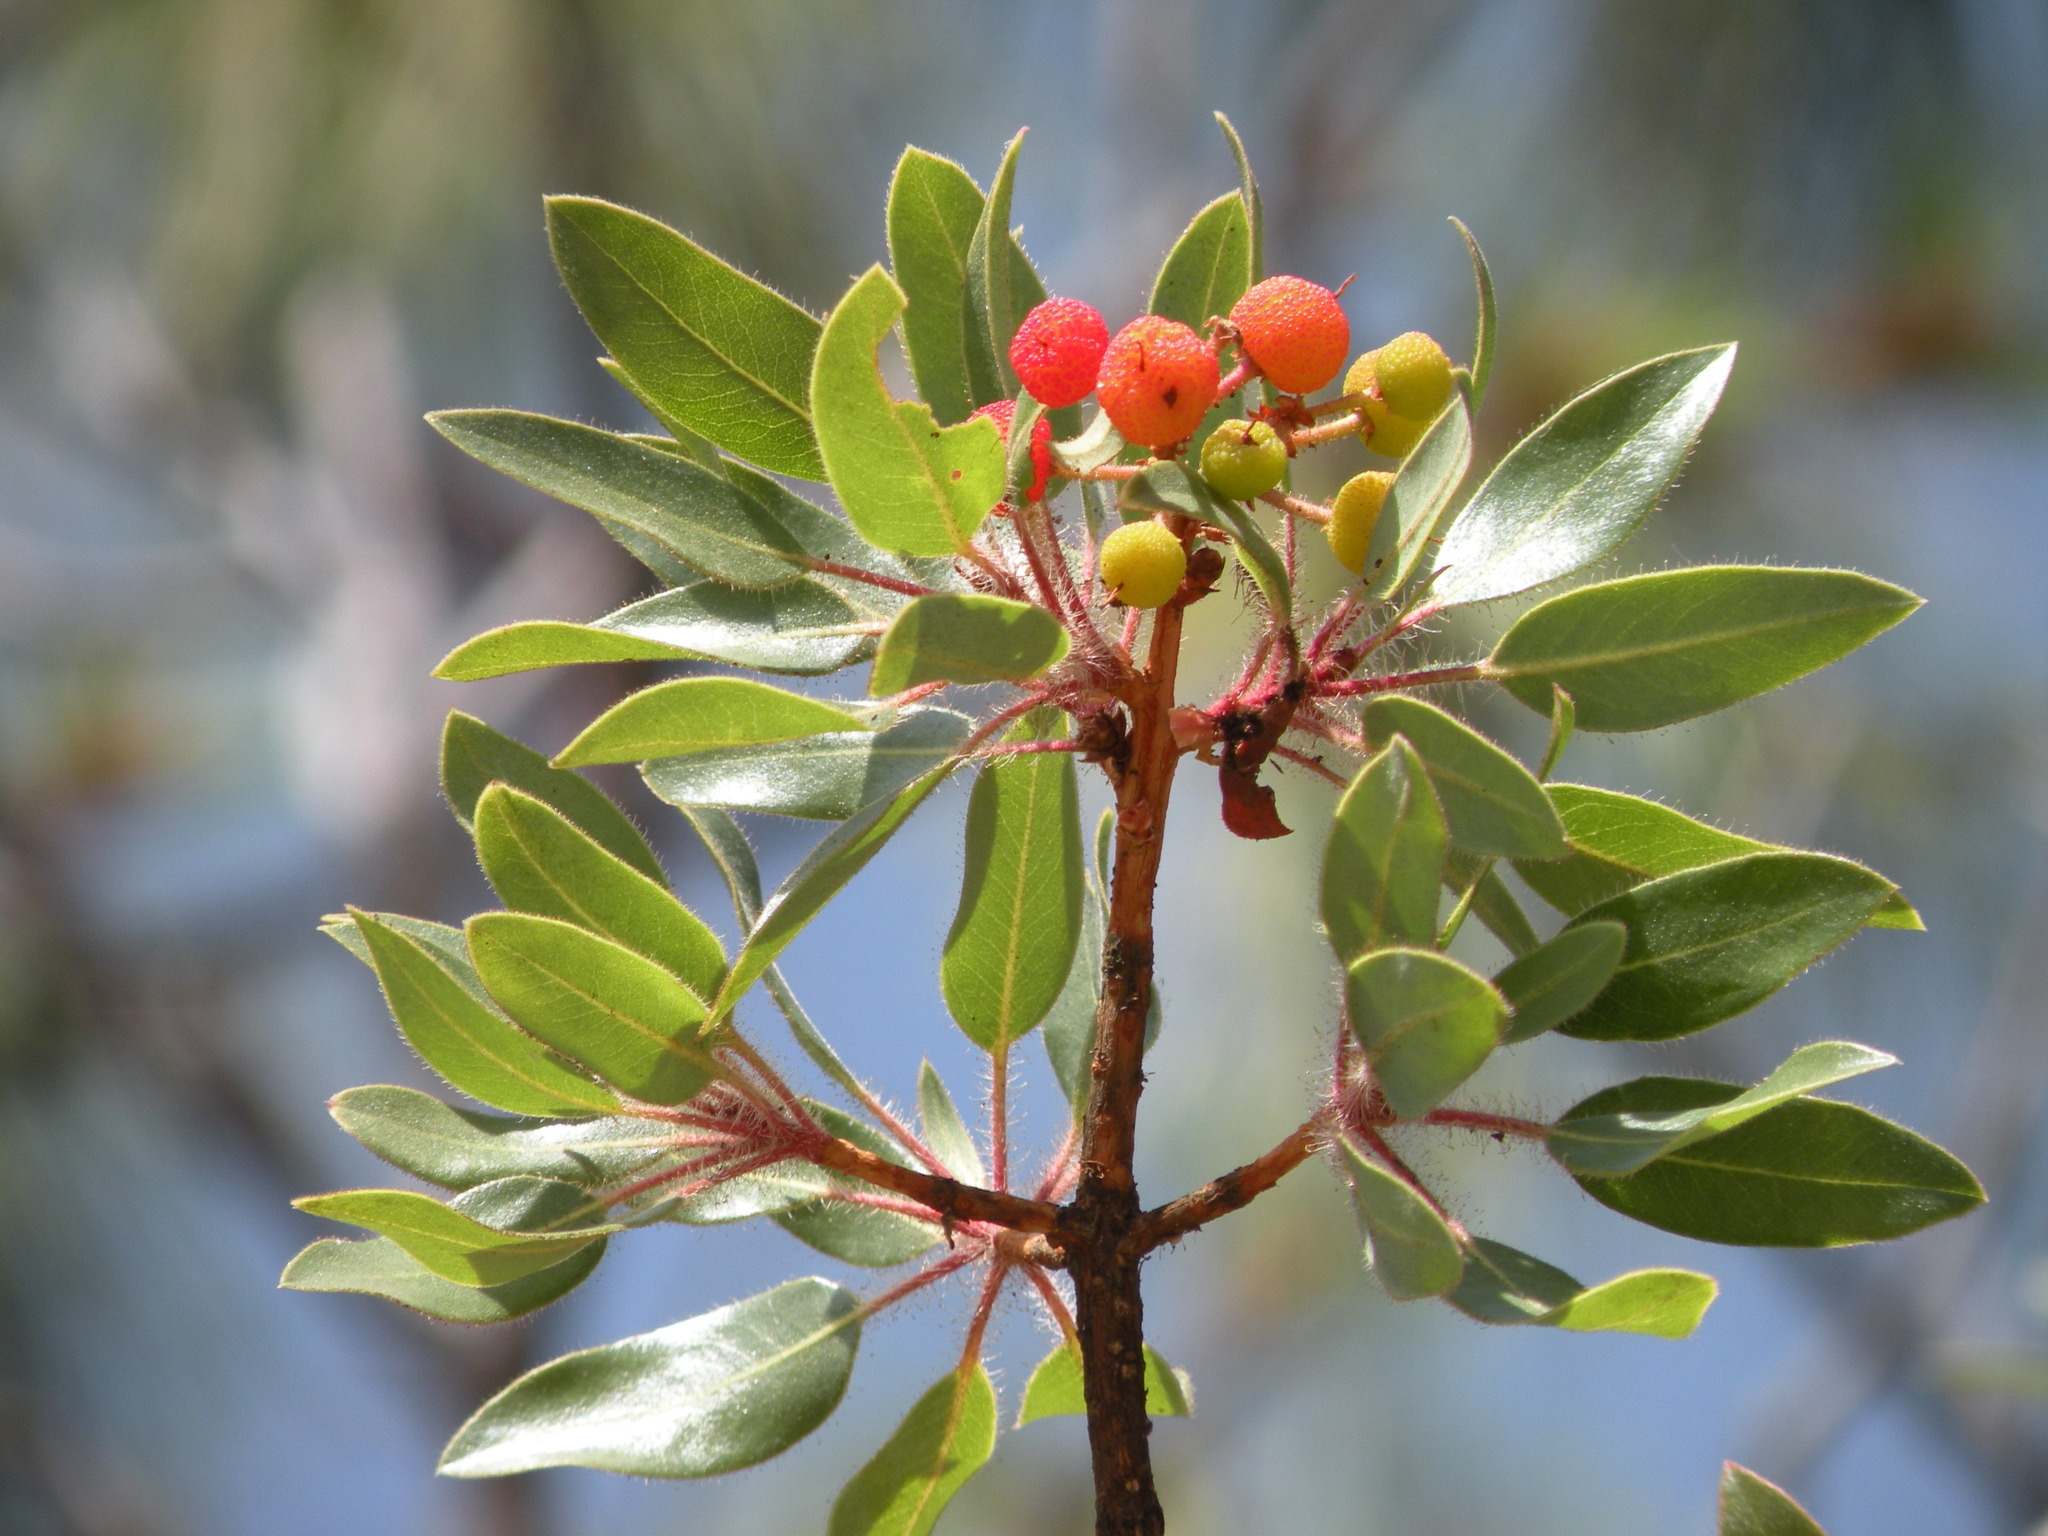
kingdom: Plantae
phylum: Tracheophyta
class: Magnoliopsida
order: Ericales
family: Ericaceae
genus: Arbutus
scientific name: Arbutus tessellata
